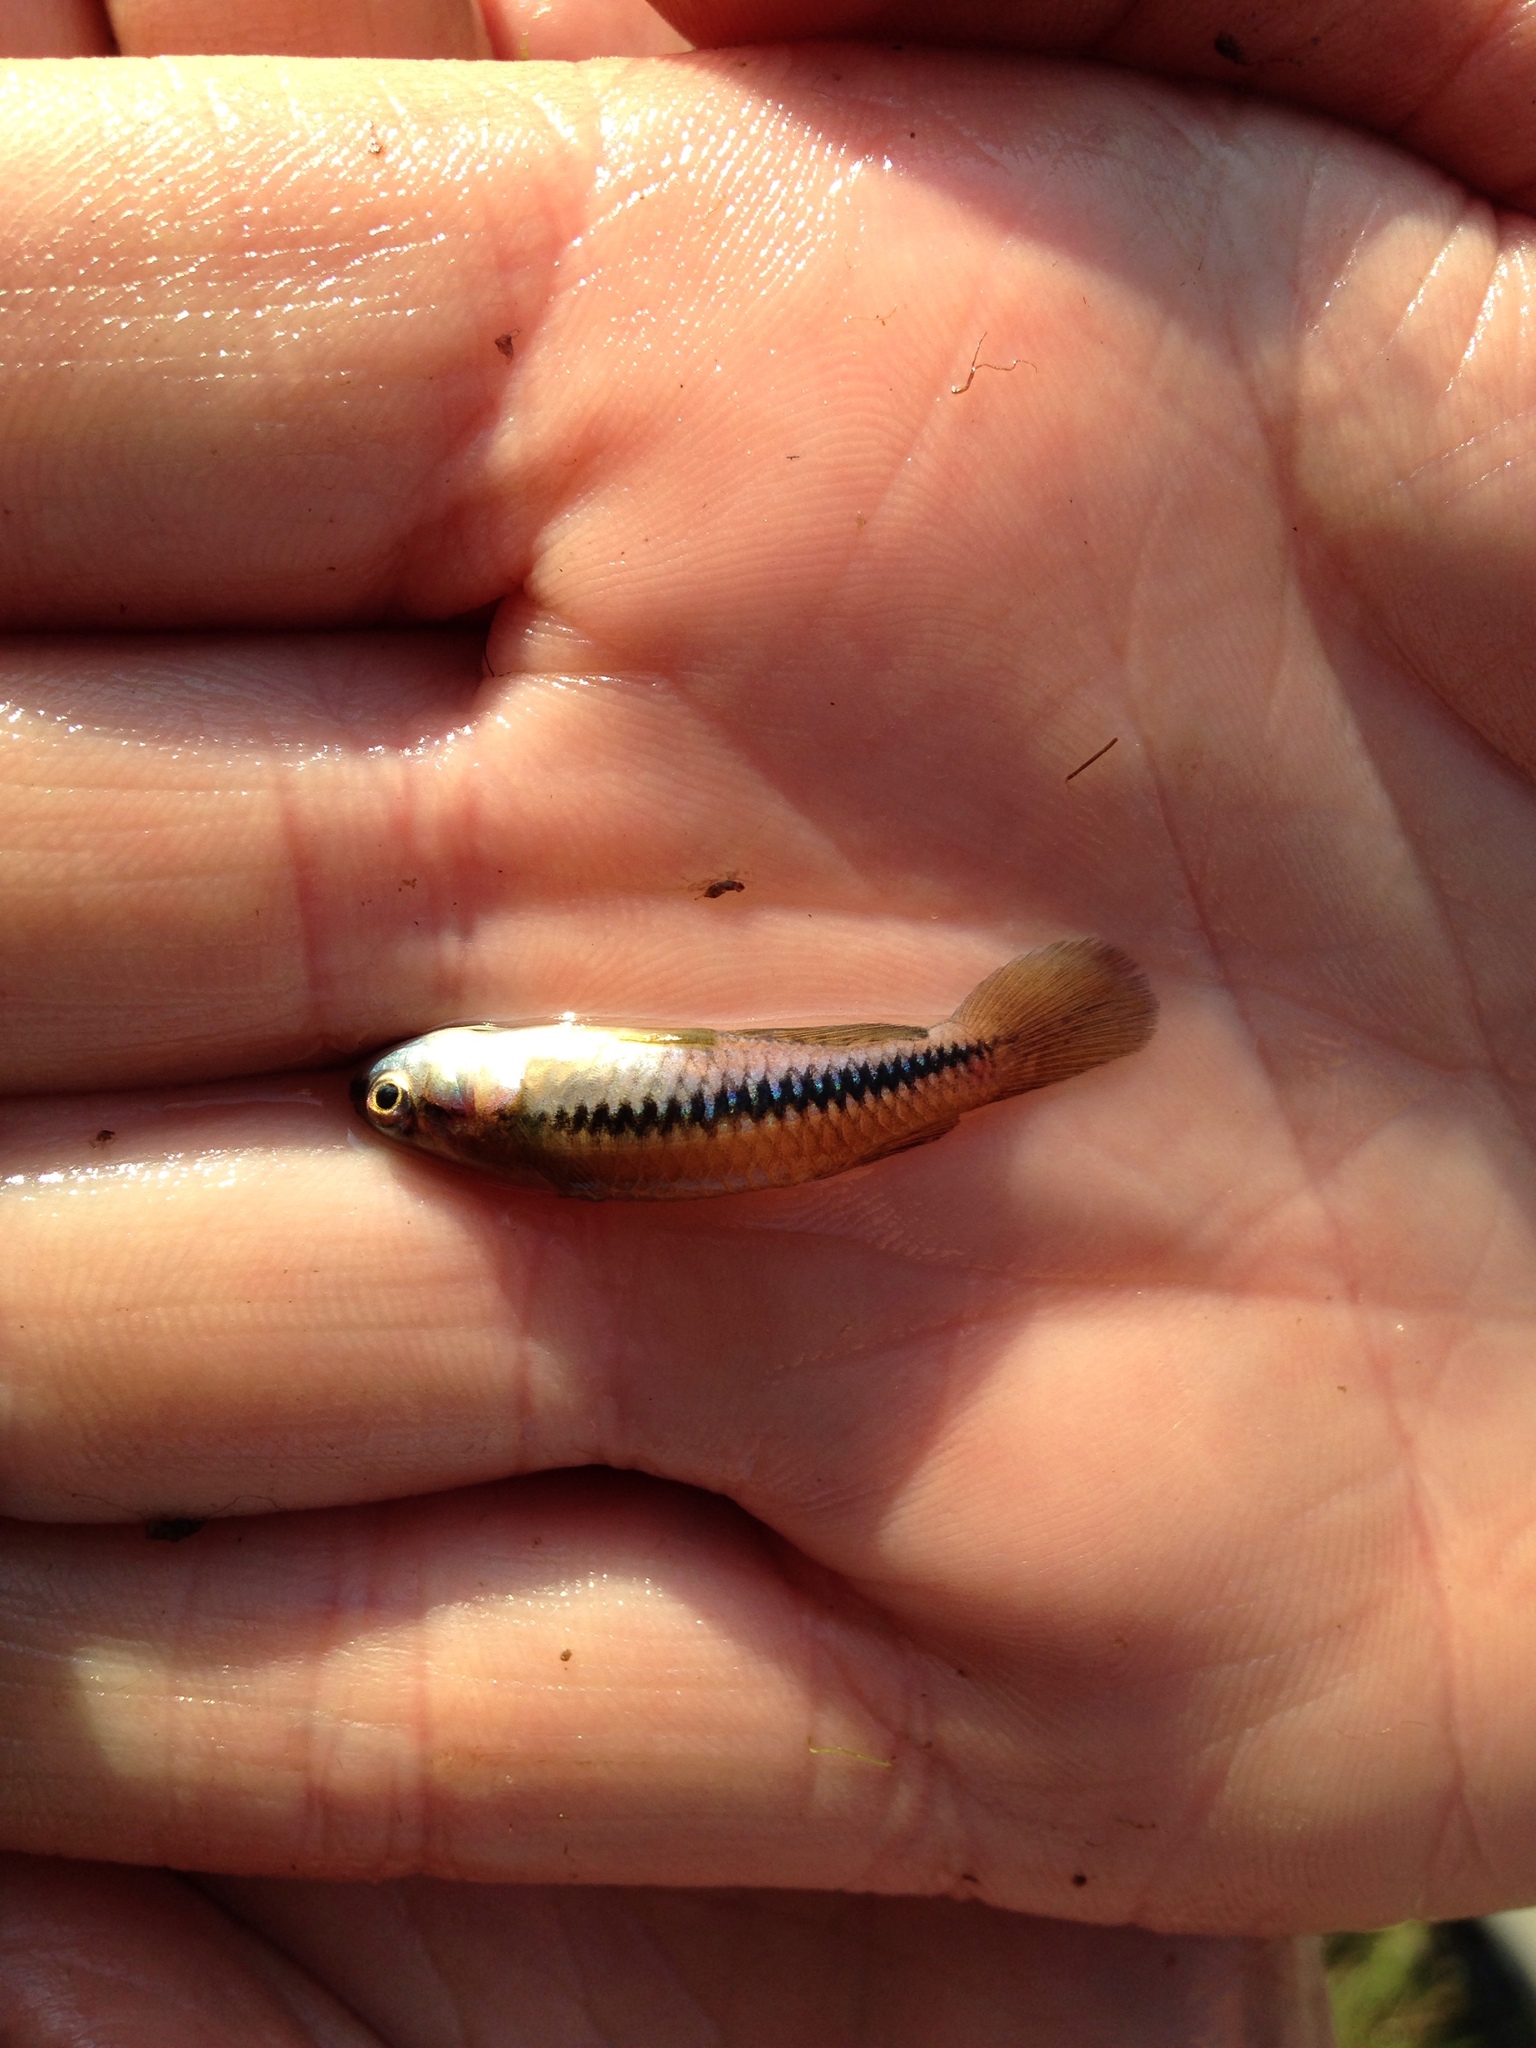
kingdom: Animalia
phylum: Chordata
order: Cyprinodontiformes
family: Poeciliidae
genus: Lacustricola
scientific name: Lacustricola katangae
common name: Striped topminnow
